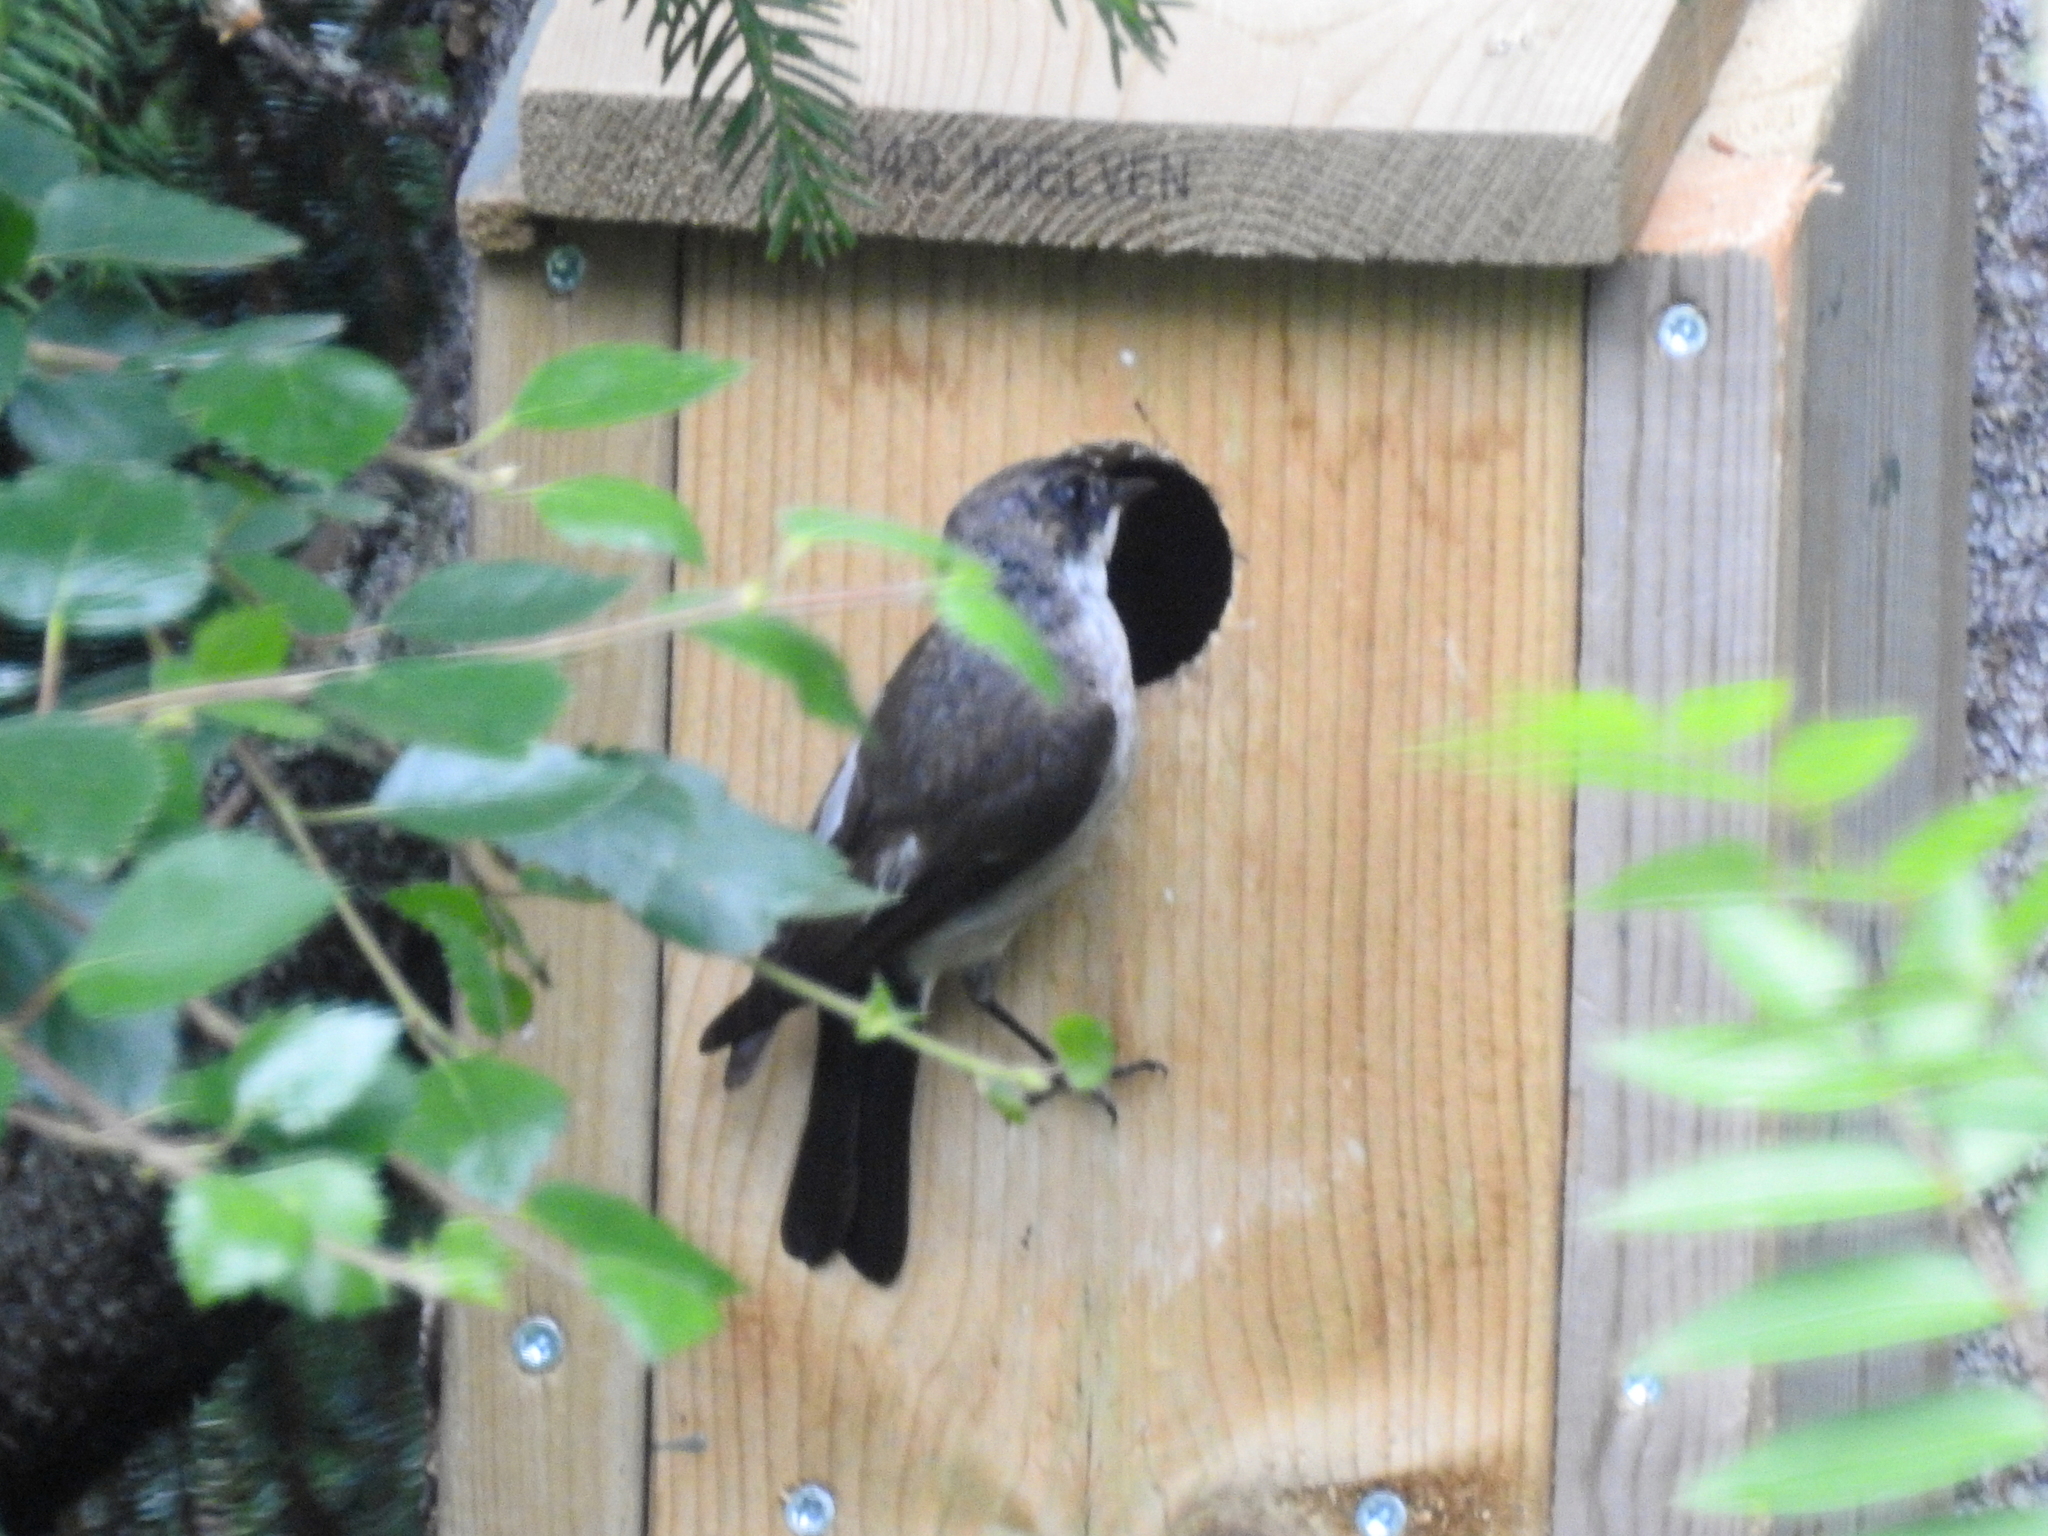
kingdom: Animalia
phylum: Chordata
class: Aves
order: Passeriformes
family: Muscicapidae
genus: Ficedula
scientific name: Ficedula hypoleuca
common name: European pied flycatcher
